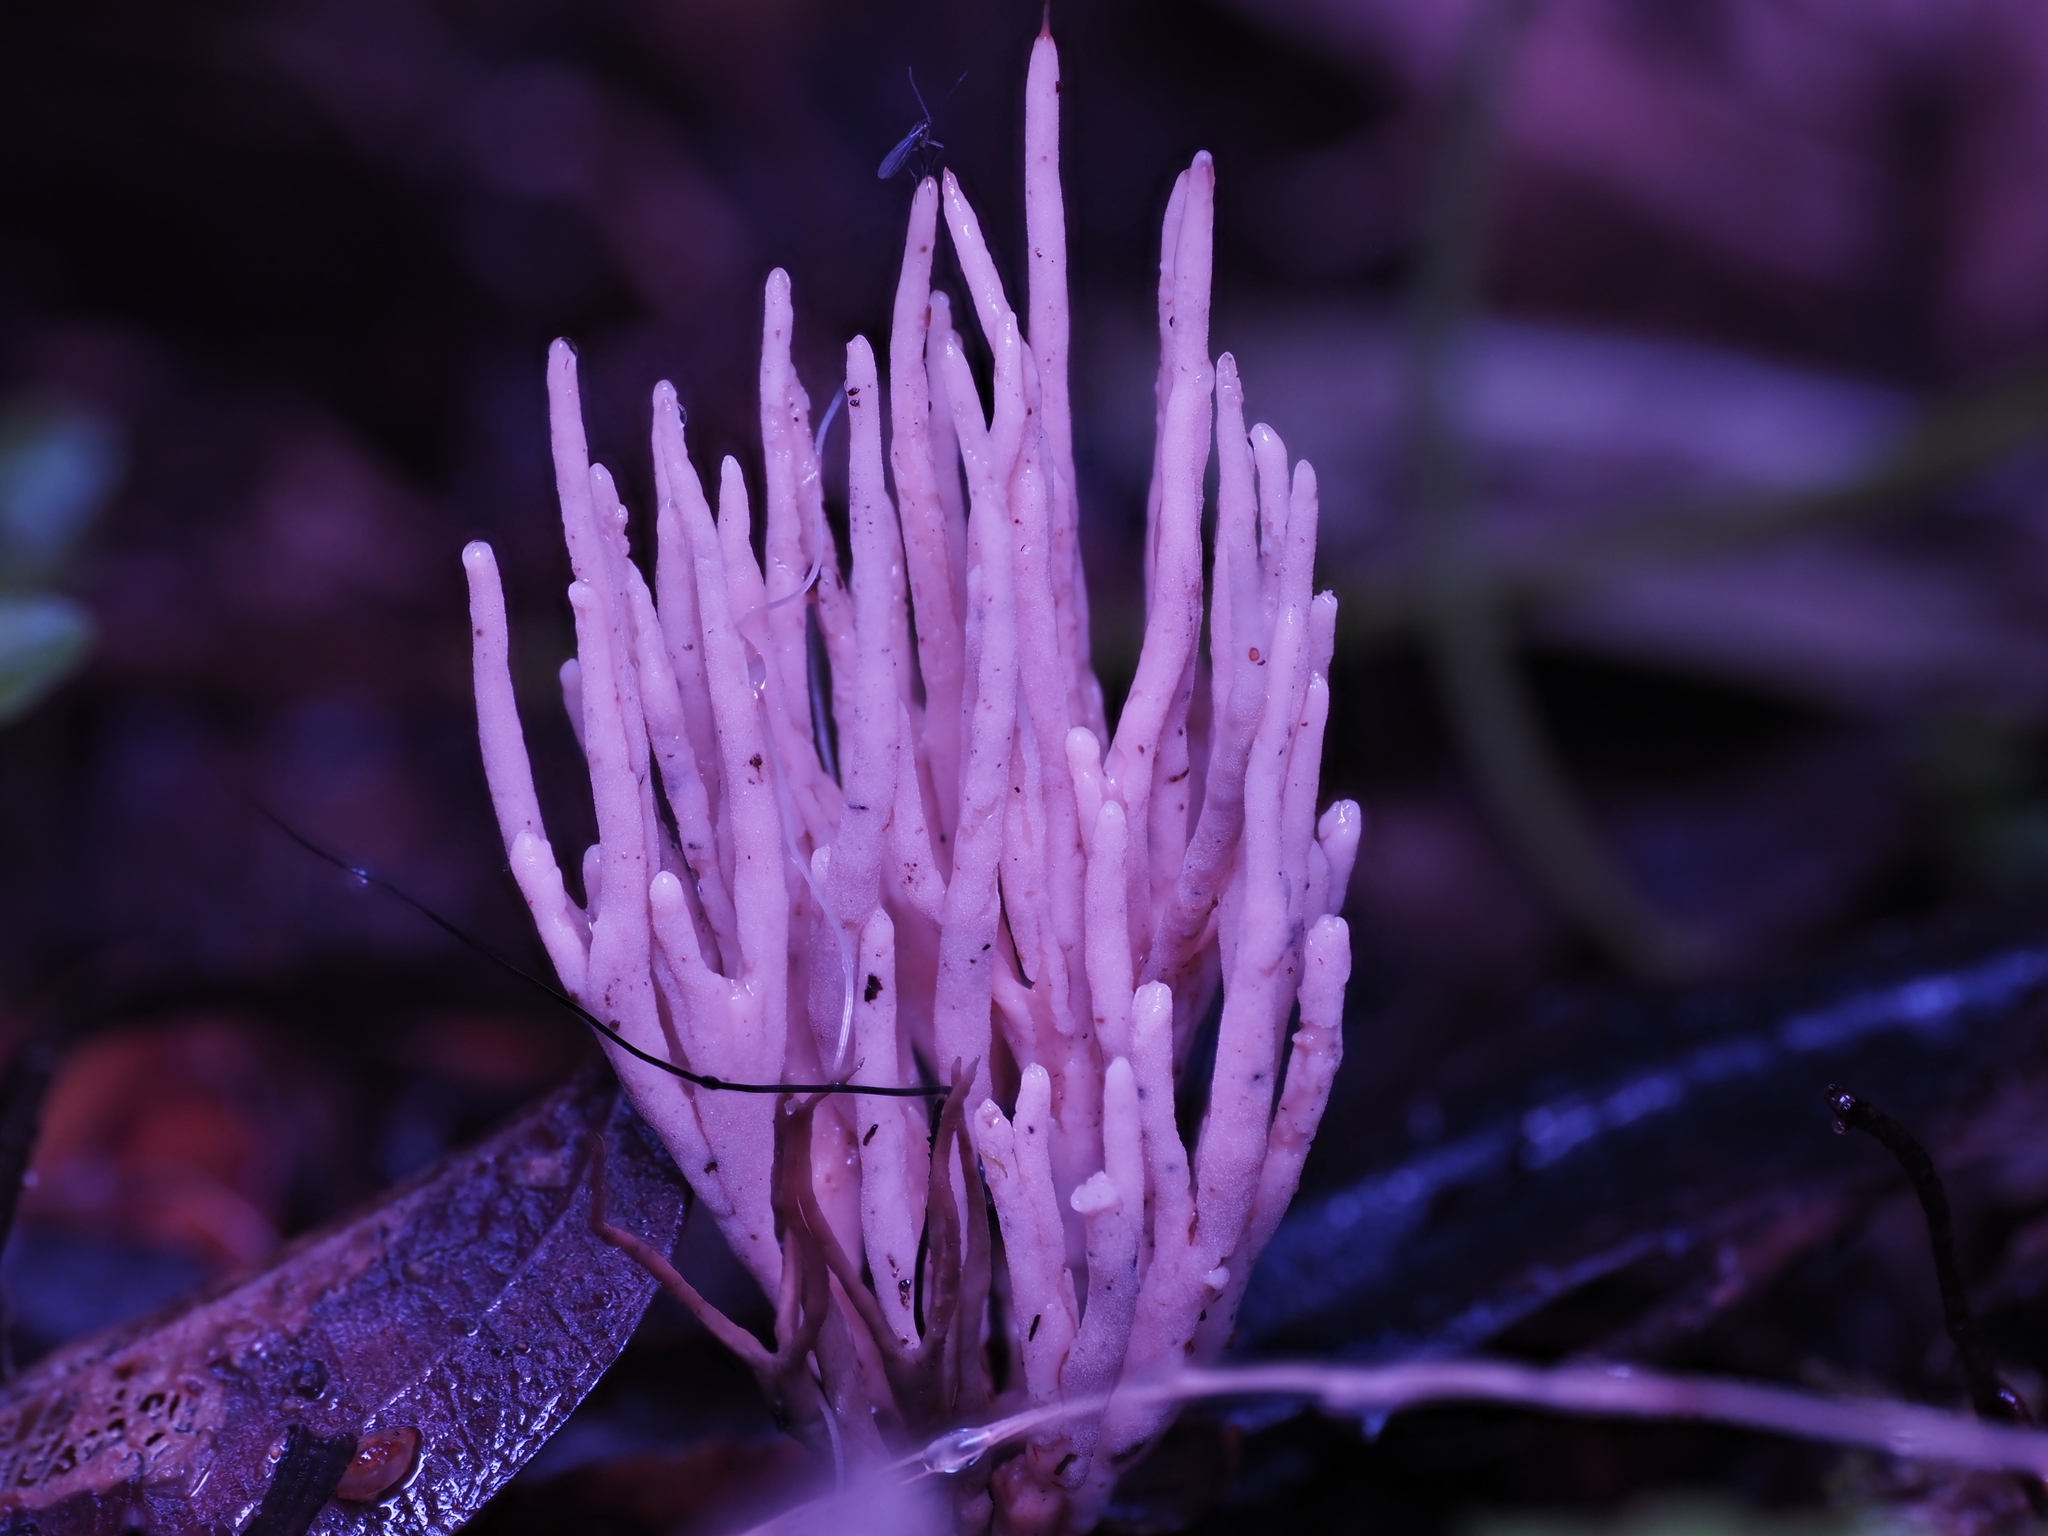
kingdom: Fungi
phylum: Basidiomycota
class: Agaricomycetes
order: Agaricales
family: Clavariaceae
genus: Ramariopsis
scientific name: Ramariopsis pulchella
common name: Lilac coral
